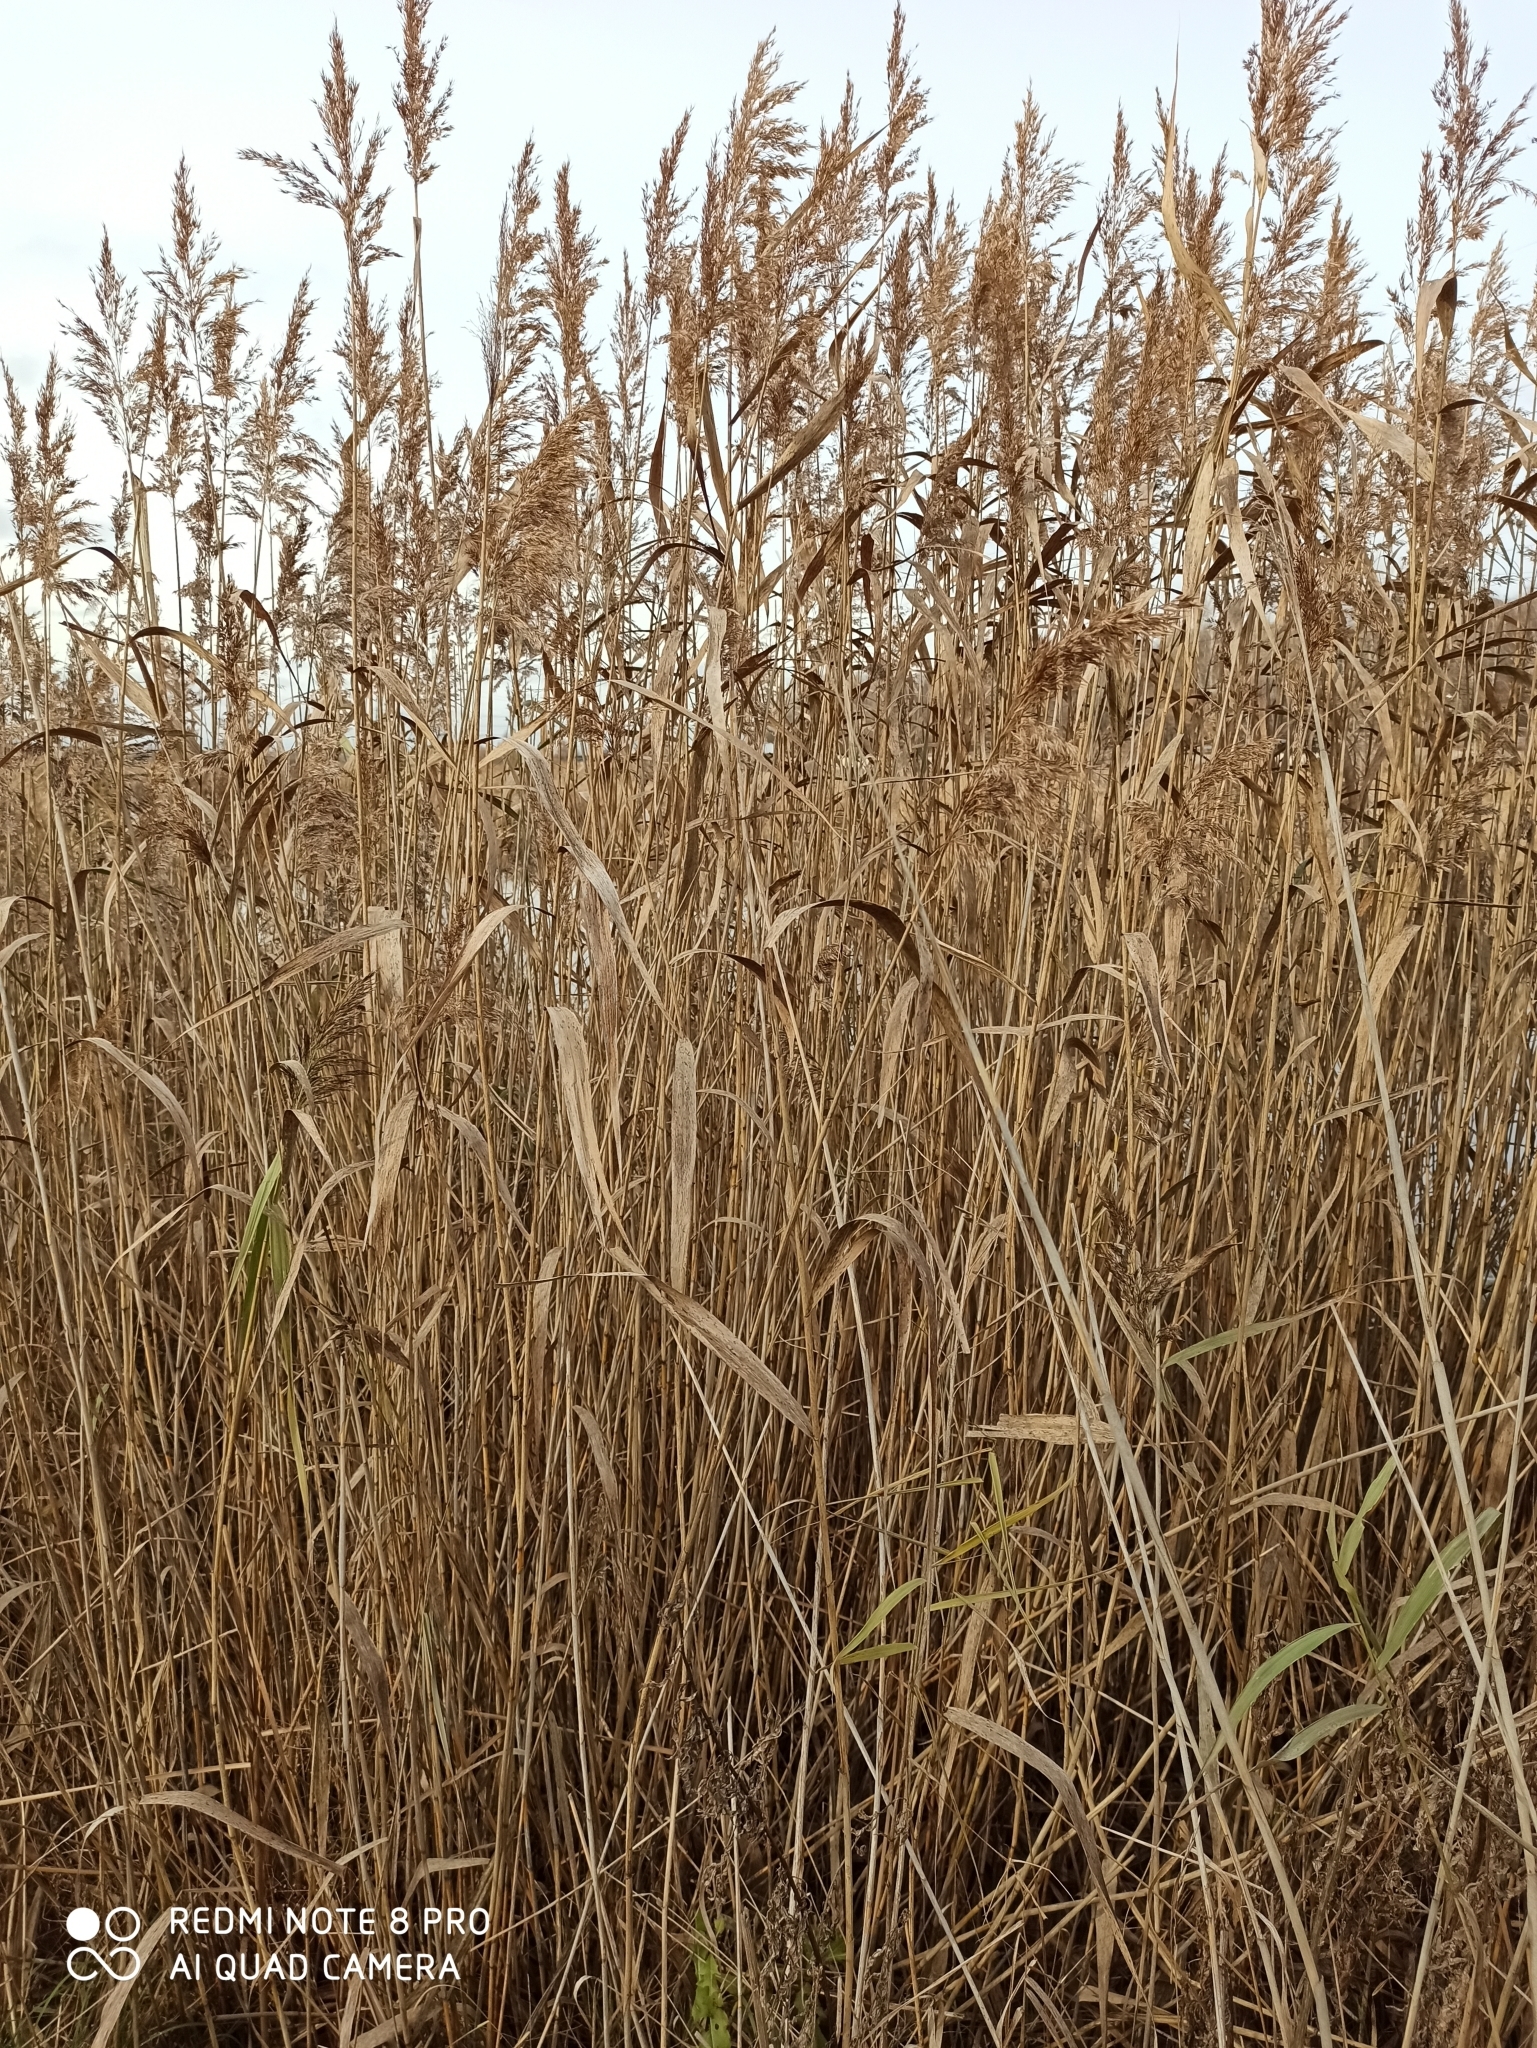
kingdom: Plantae
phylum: Tracheophyta
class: Liliopsida
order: Poales
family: Poaceae
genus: Phragmites
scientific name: Phragmites australis
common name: Common reed
